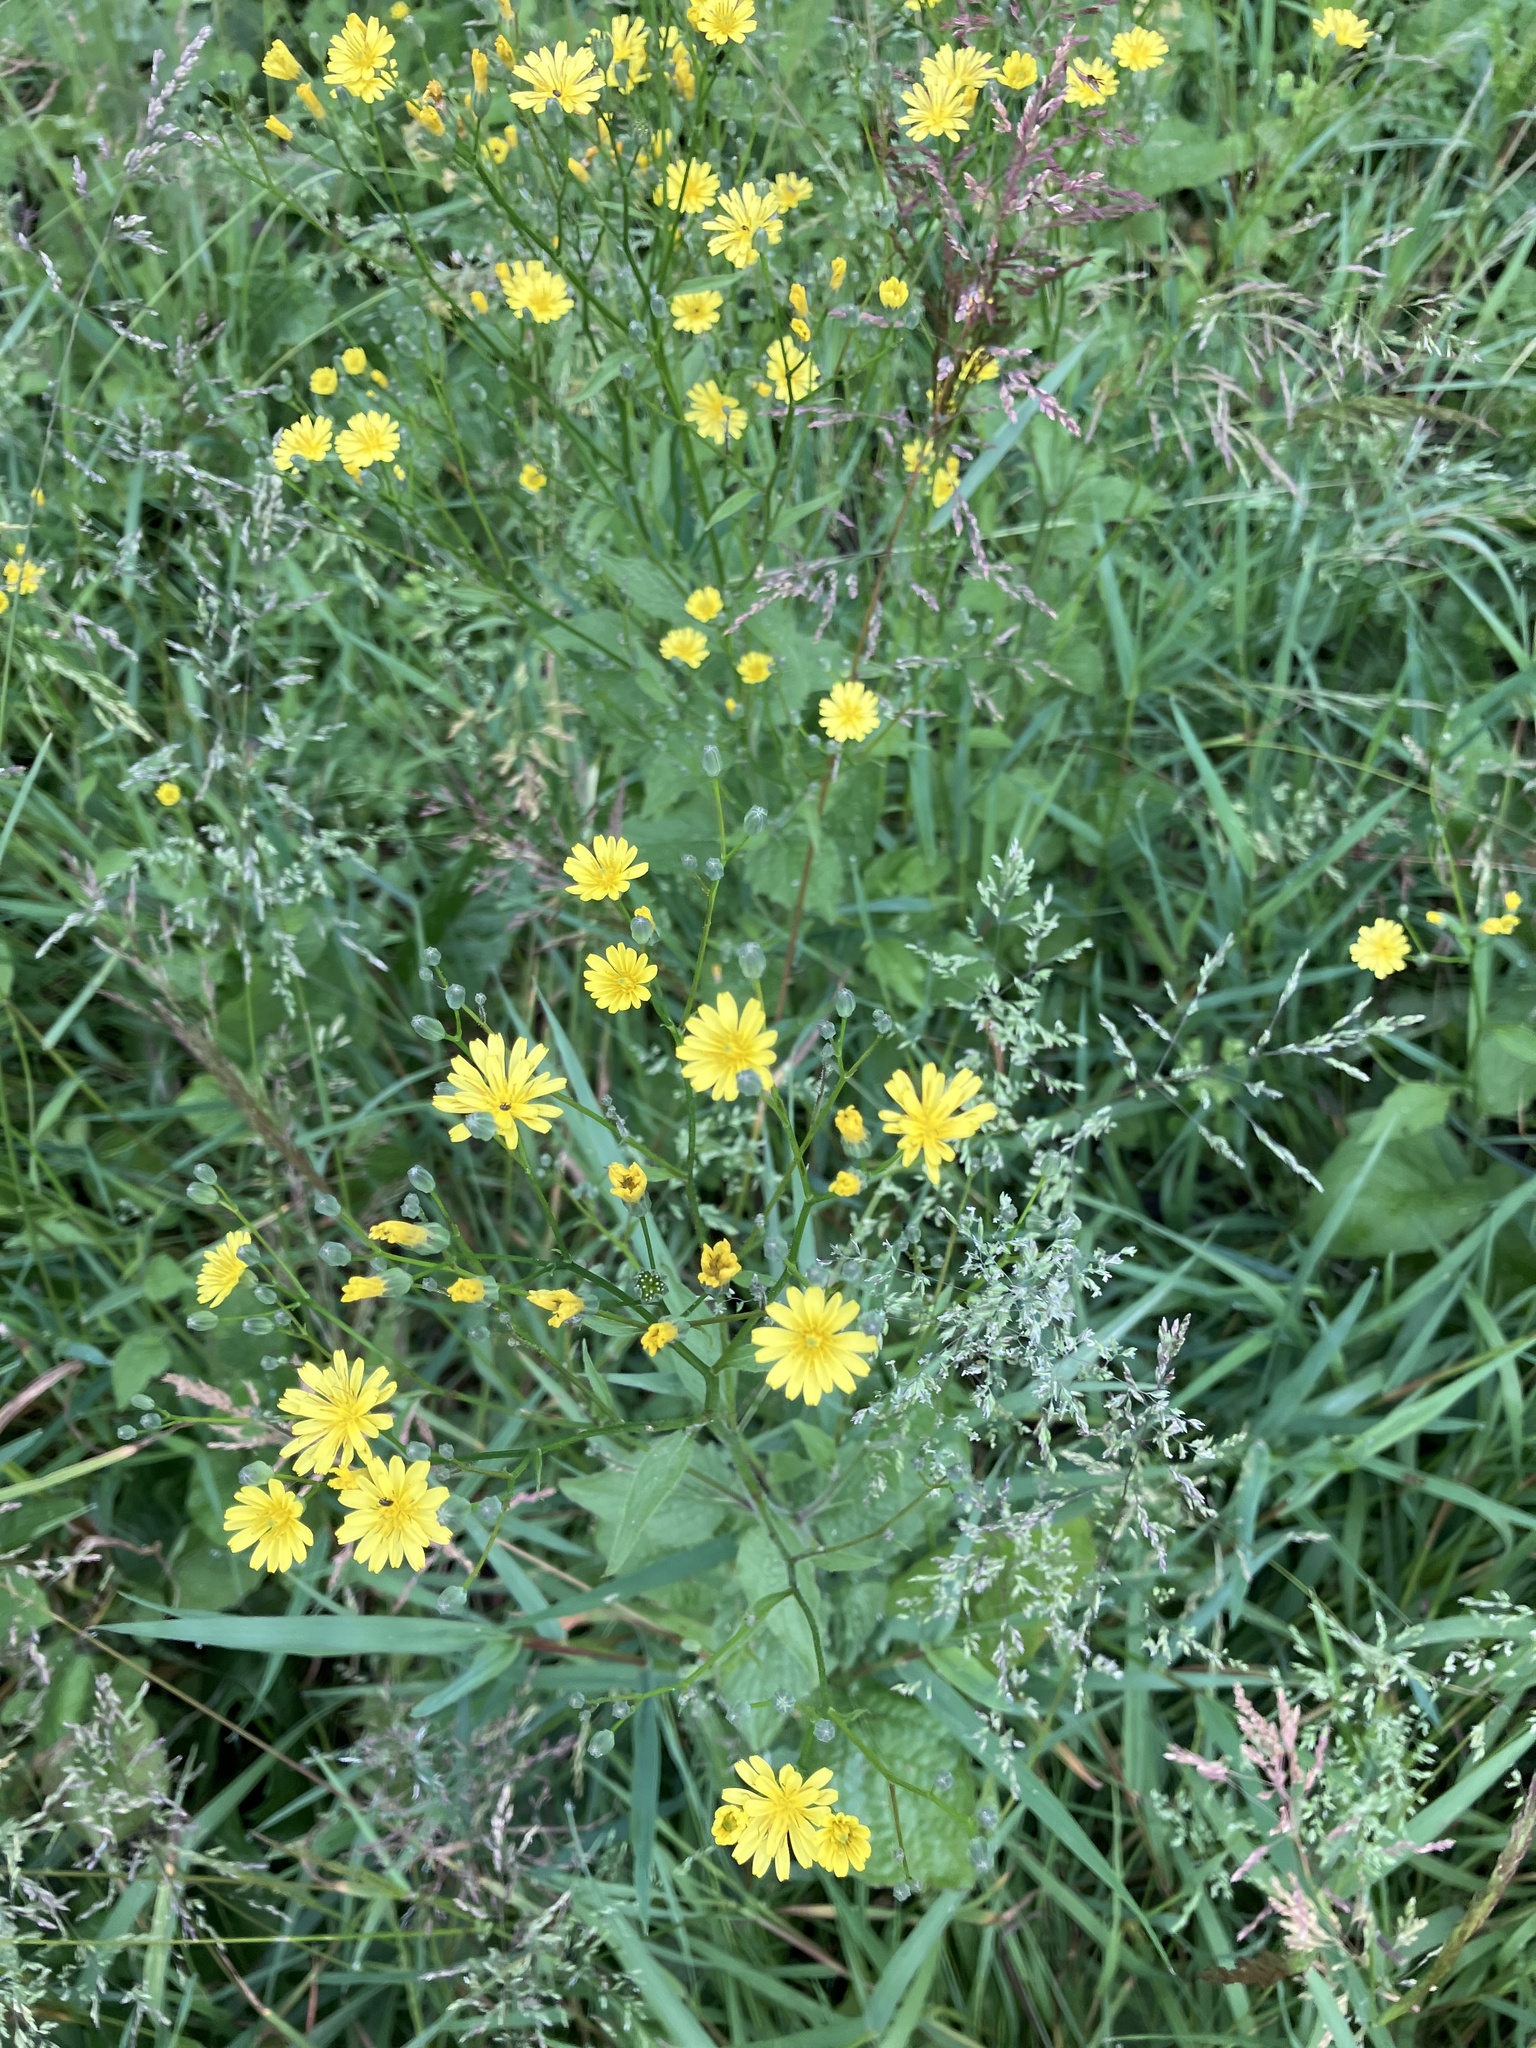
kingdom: Plantae
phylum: Tracheophyta
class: Magnoliopsida
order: Asterales
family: Asteraceae
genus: Lapsana
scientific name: Lapsana communis
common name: Nipplewort
